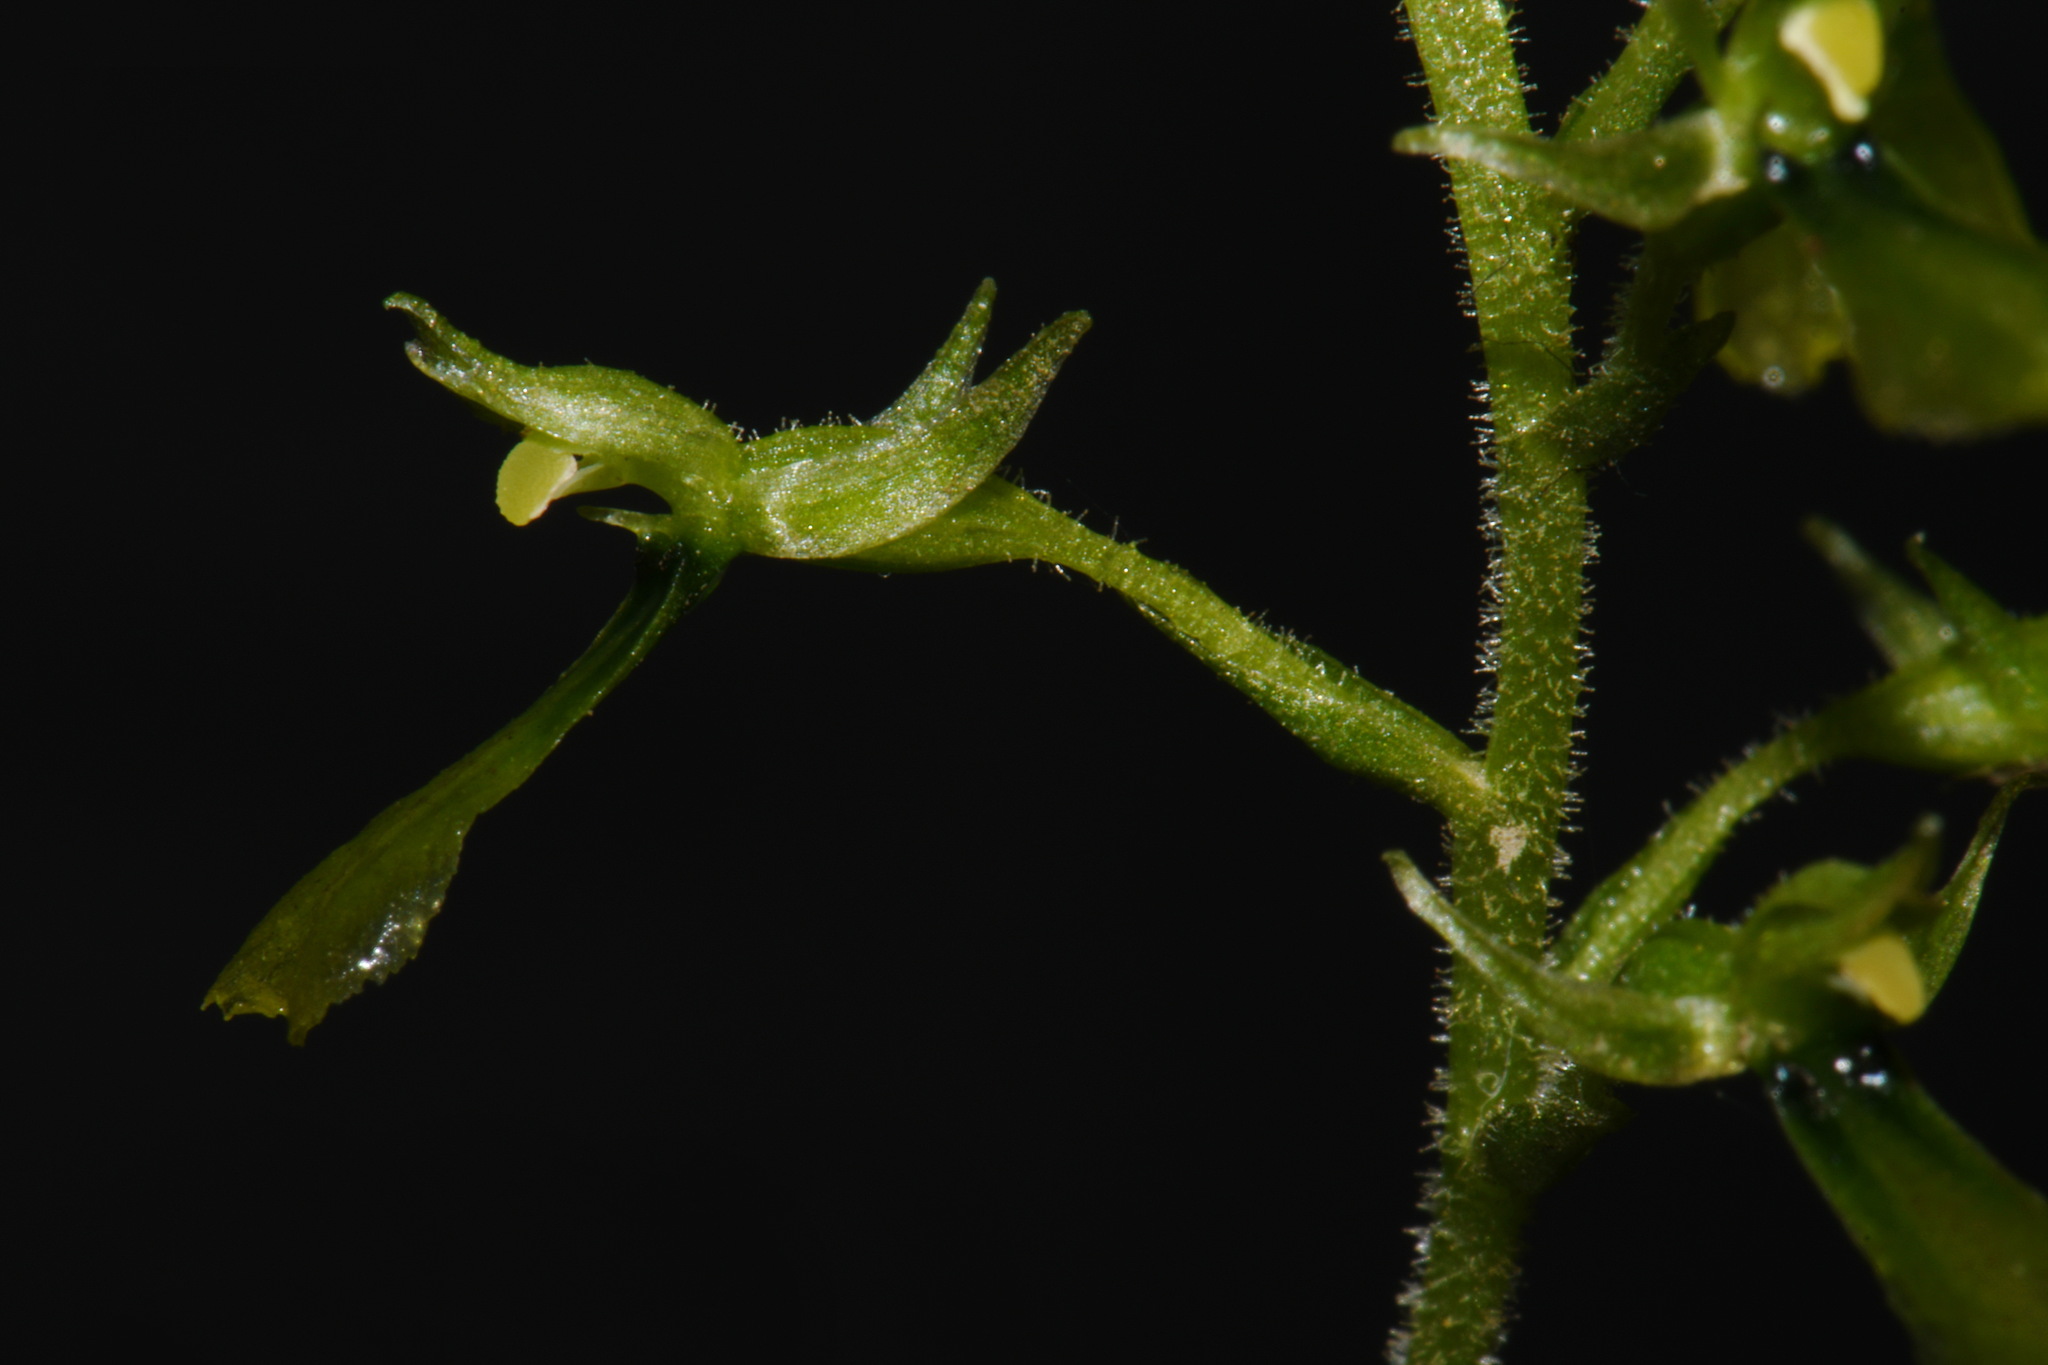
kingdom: Plantae
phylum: Tracheophyta
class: Liliopsida
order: Asparagales
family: Orchidaceae
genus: Neottia
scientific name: Neottia banksiana
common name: Northwestern twayblade
